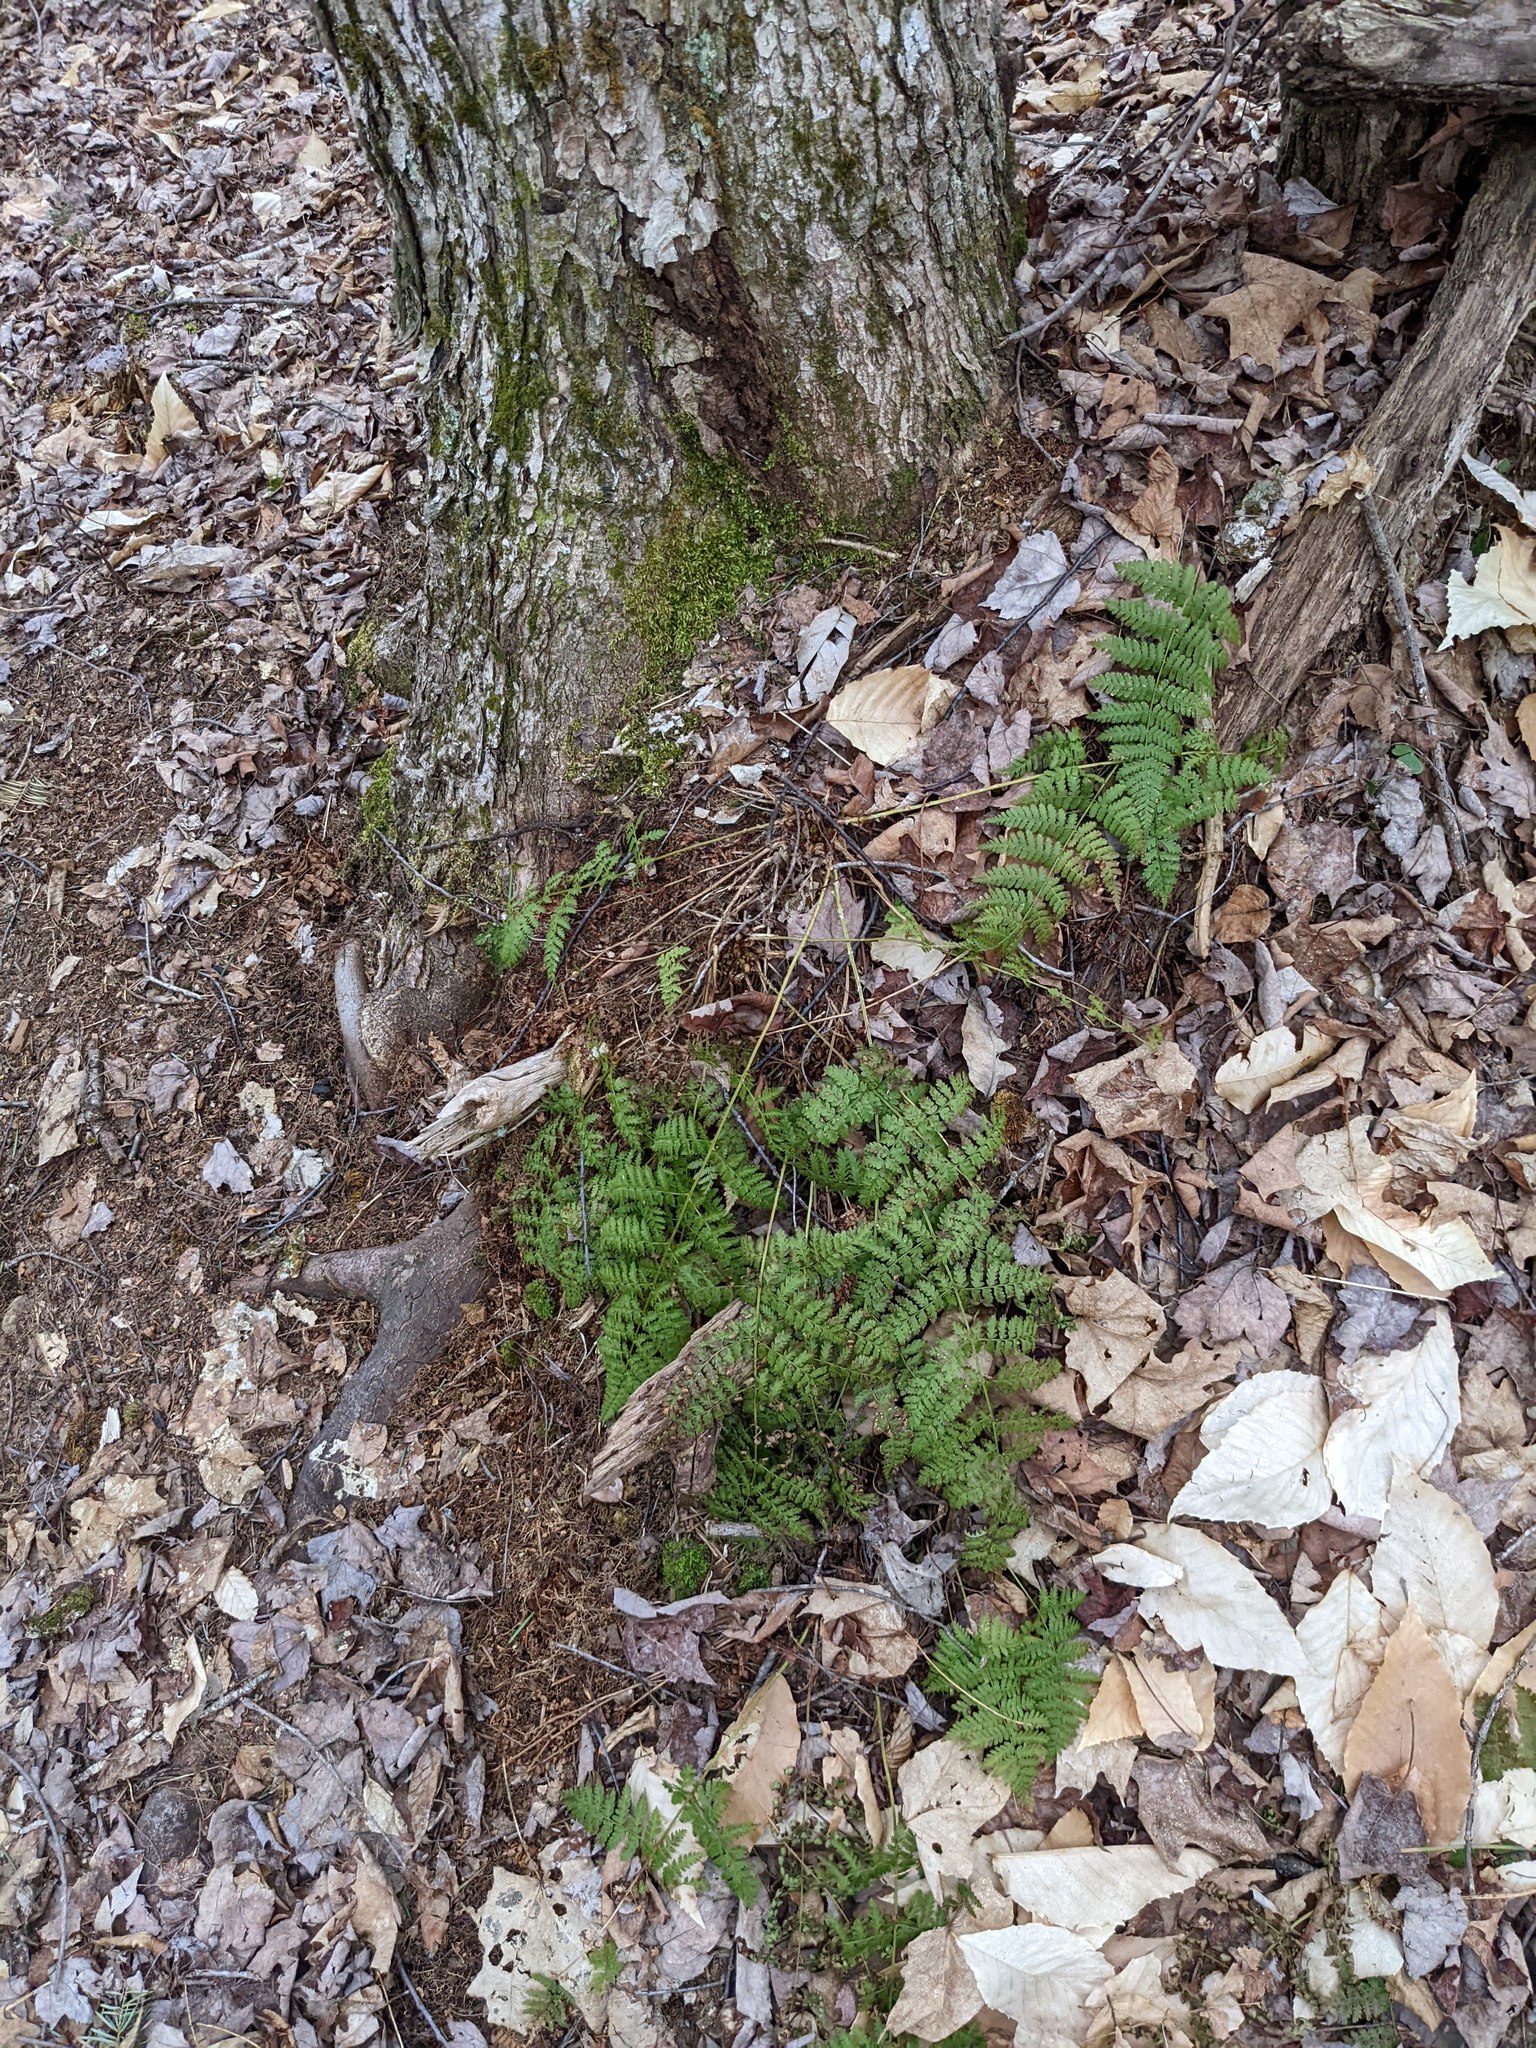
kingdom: Plantae
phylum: Tracheophyta
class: Polypodiopsida
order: Polypodiales
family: Dryopteridaceae
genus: Dryopteris
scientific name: Dryopteris intermedia
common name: Evergreen wood fern
